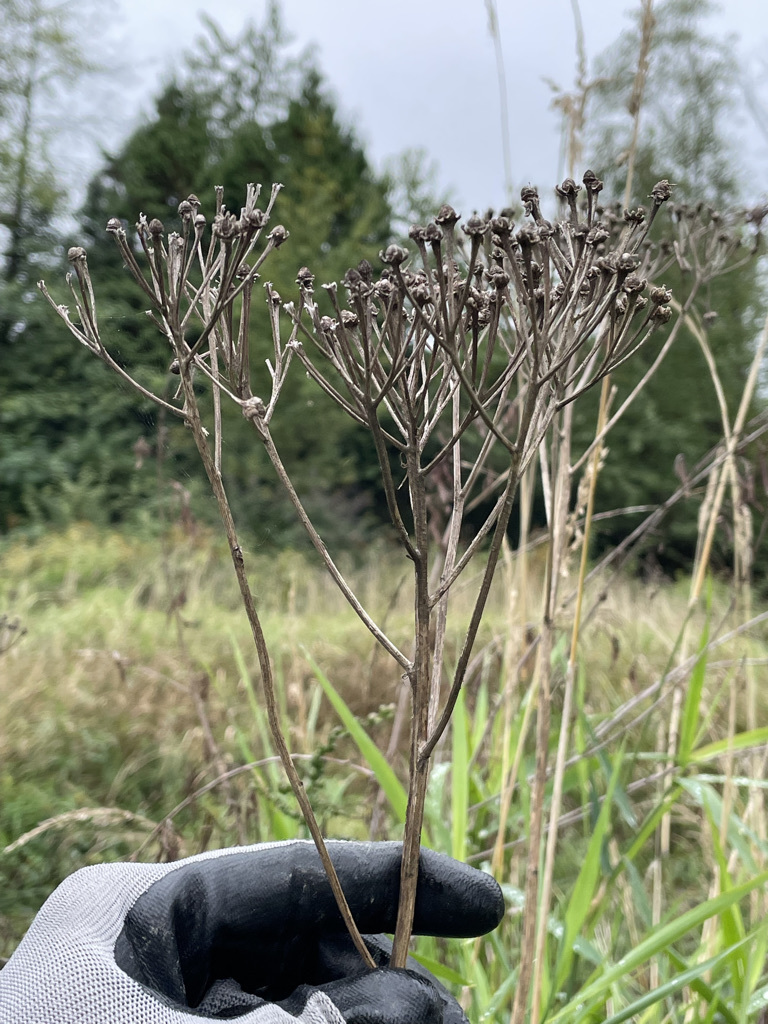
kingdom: Plantae
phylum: Tracheophyta
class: Magnoliopsida
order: Asterales
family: Asteraceae
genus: Tanacetum
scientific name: Tanacetum vulgare
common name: Common tansy
